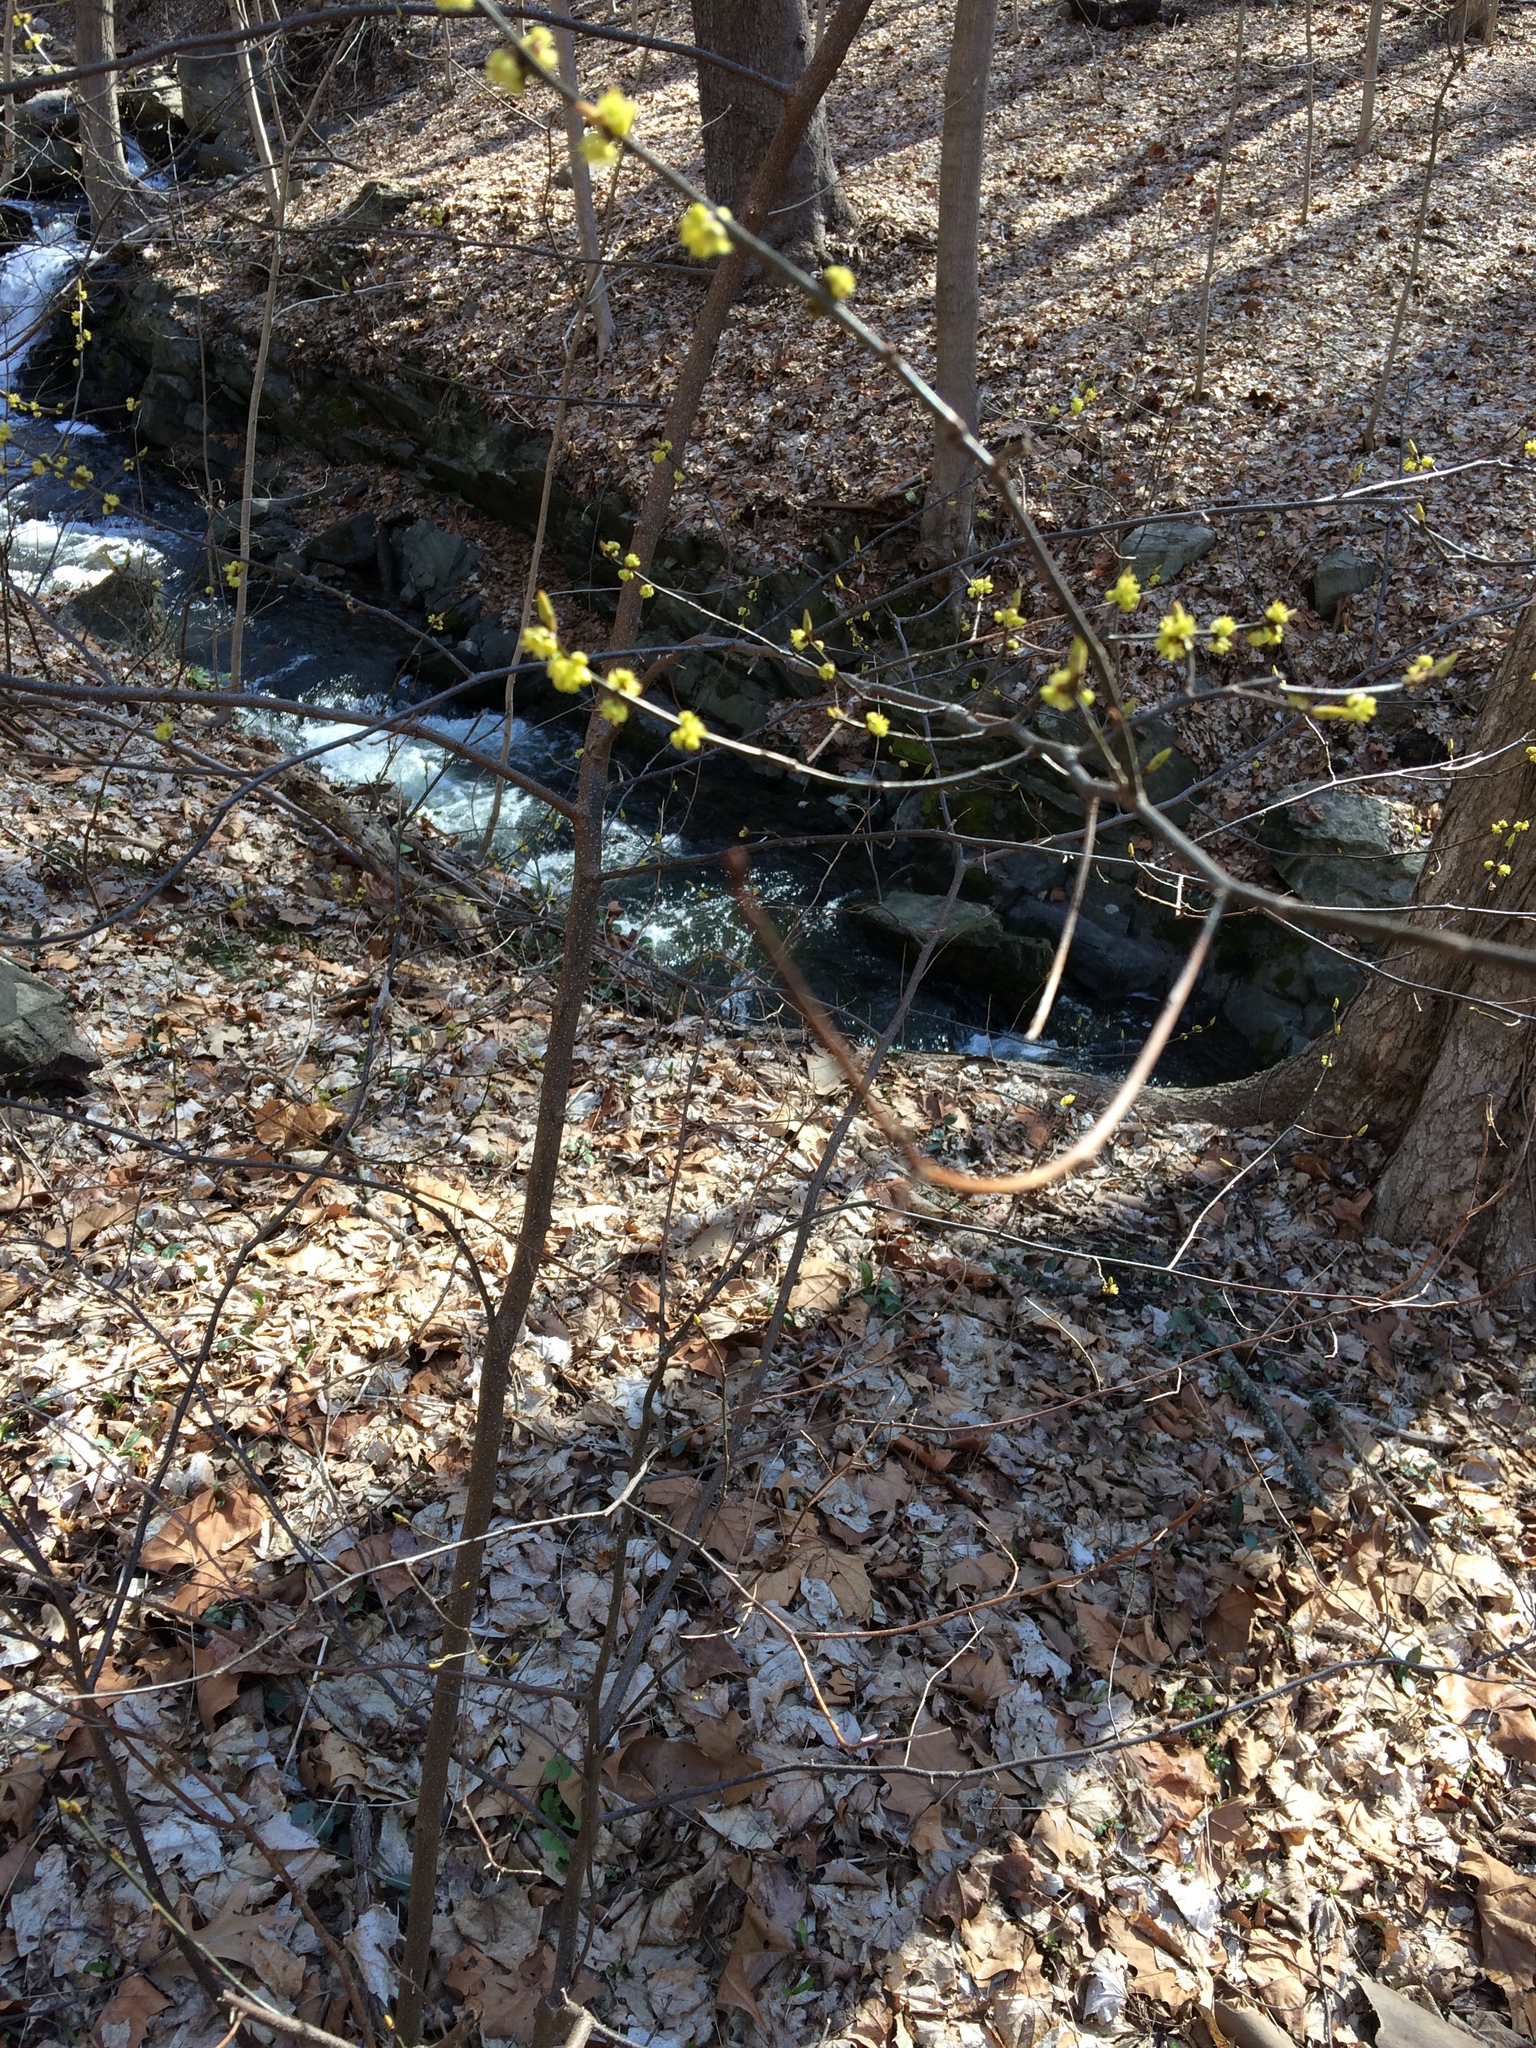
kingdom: Plantae
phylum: Tracheophyta
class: Magnoliopsida
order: Laurales
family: Lauraceae
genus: Lindera
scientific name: Lindera benzoin
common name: Spicebush
